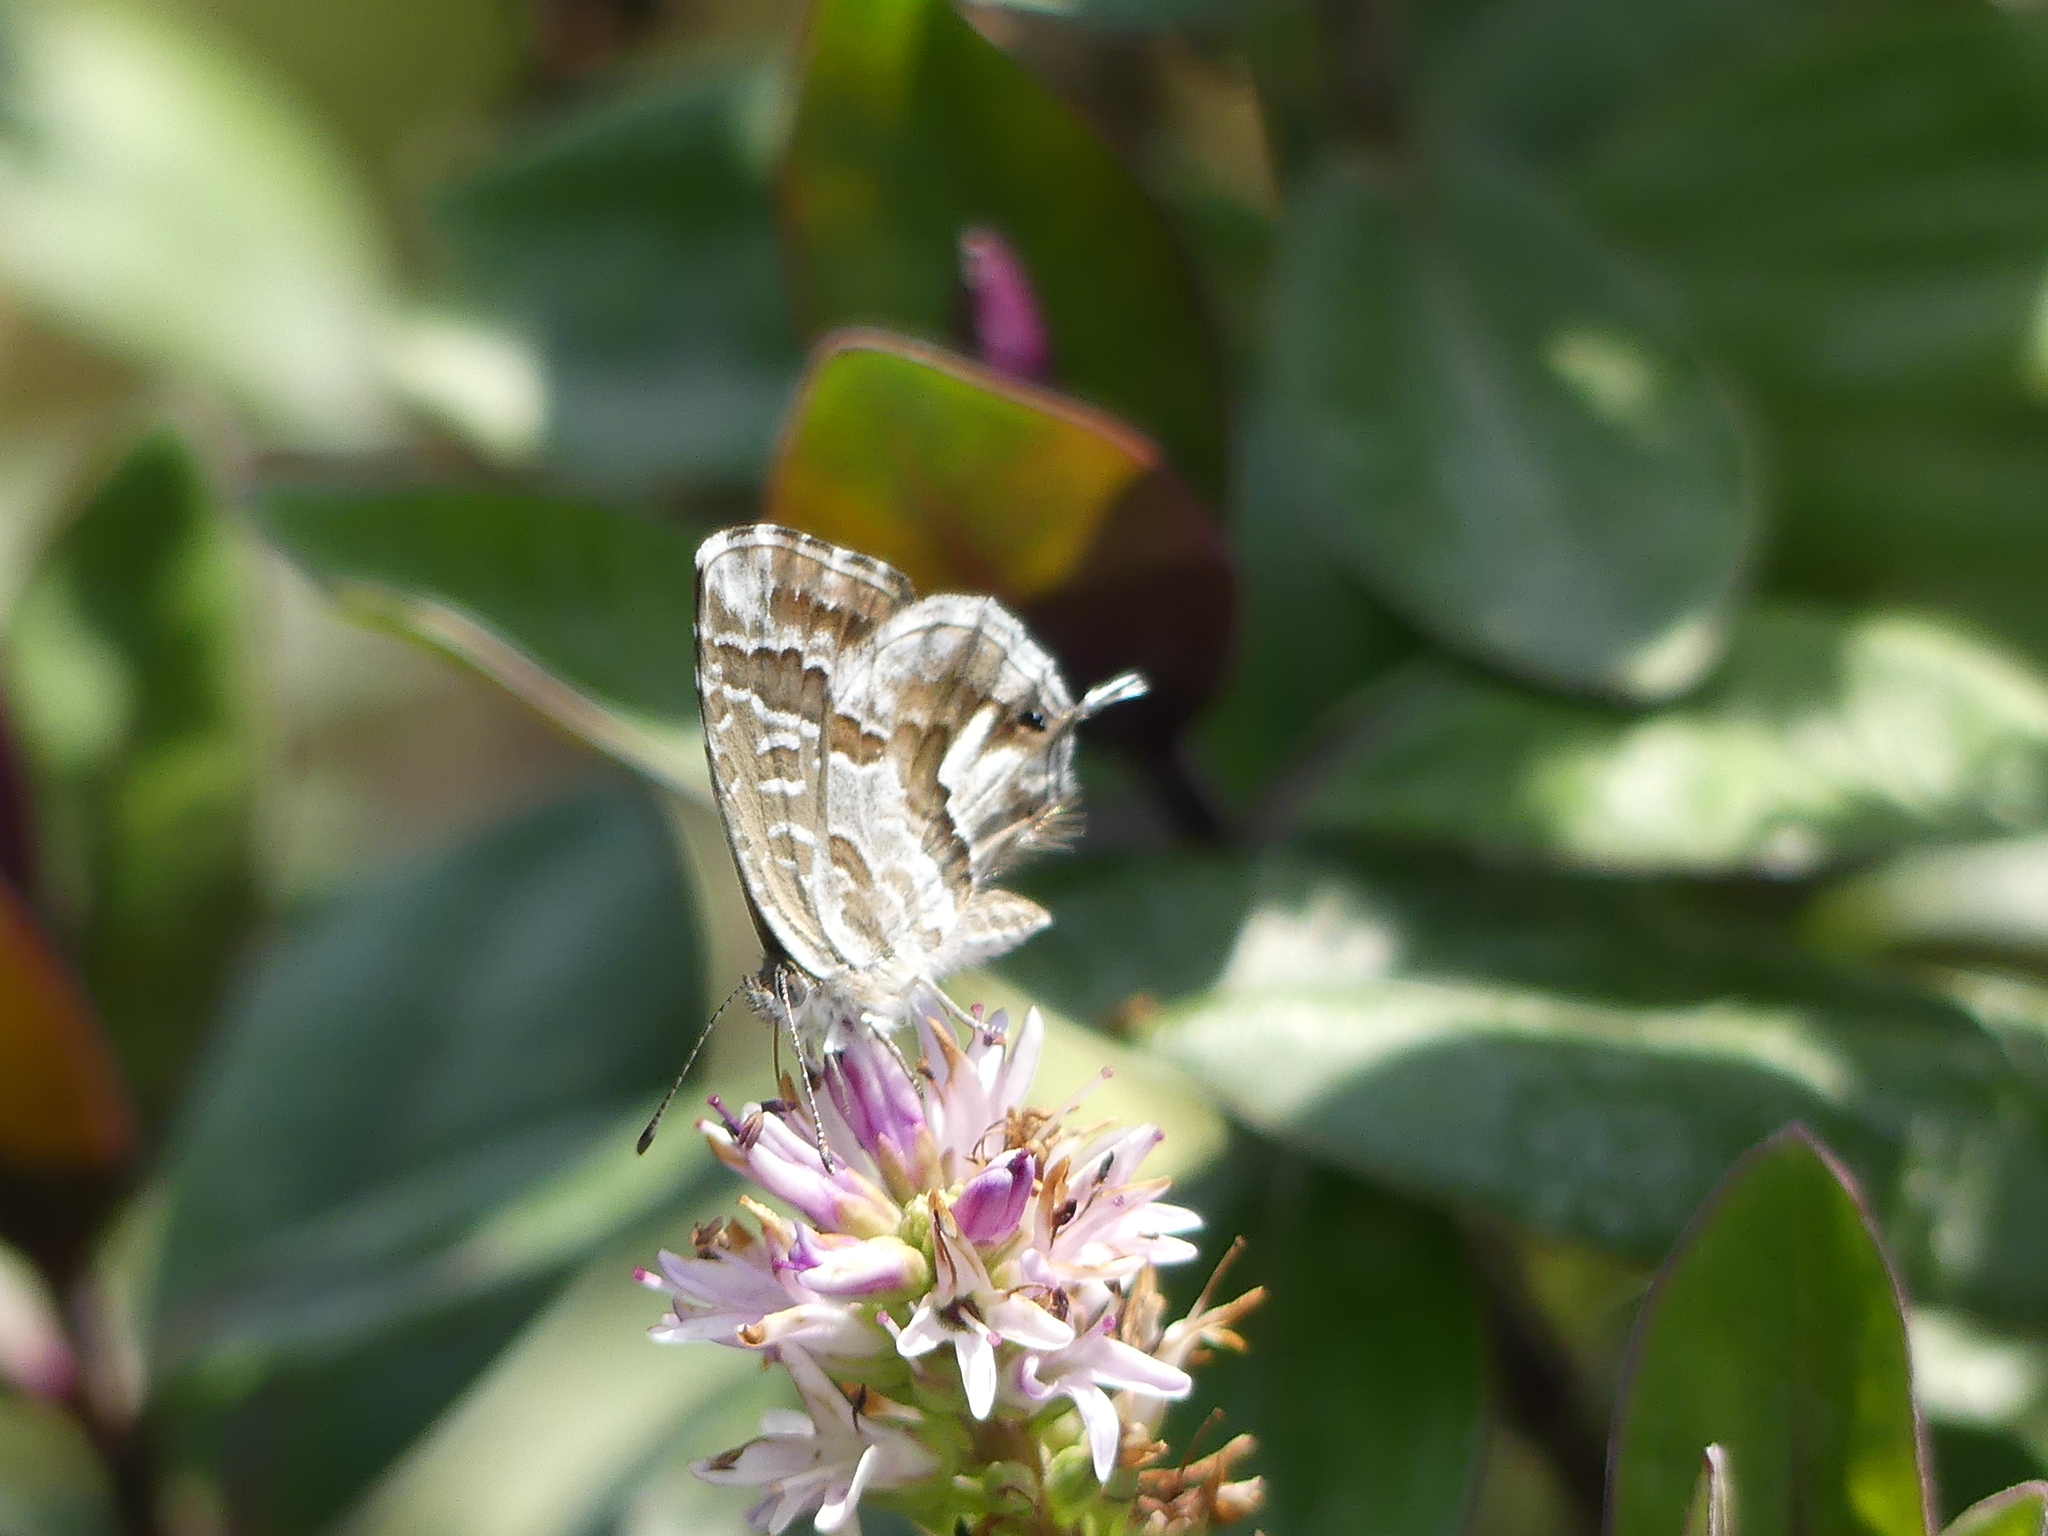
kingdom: Animalia
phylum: Arthropoda
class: Insecta
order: Lepidoptera
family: Lycaenidae
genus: Cacyreus
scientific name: Cacyreus marshalli
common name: Geranium bronze
